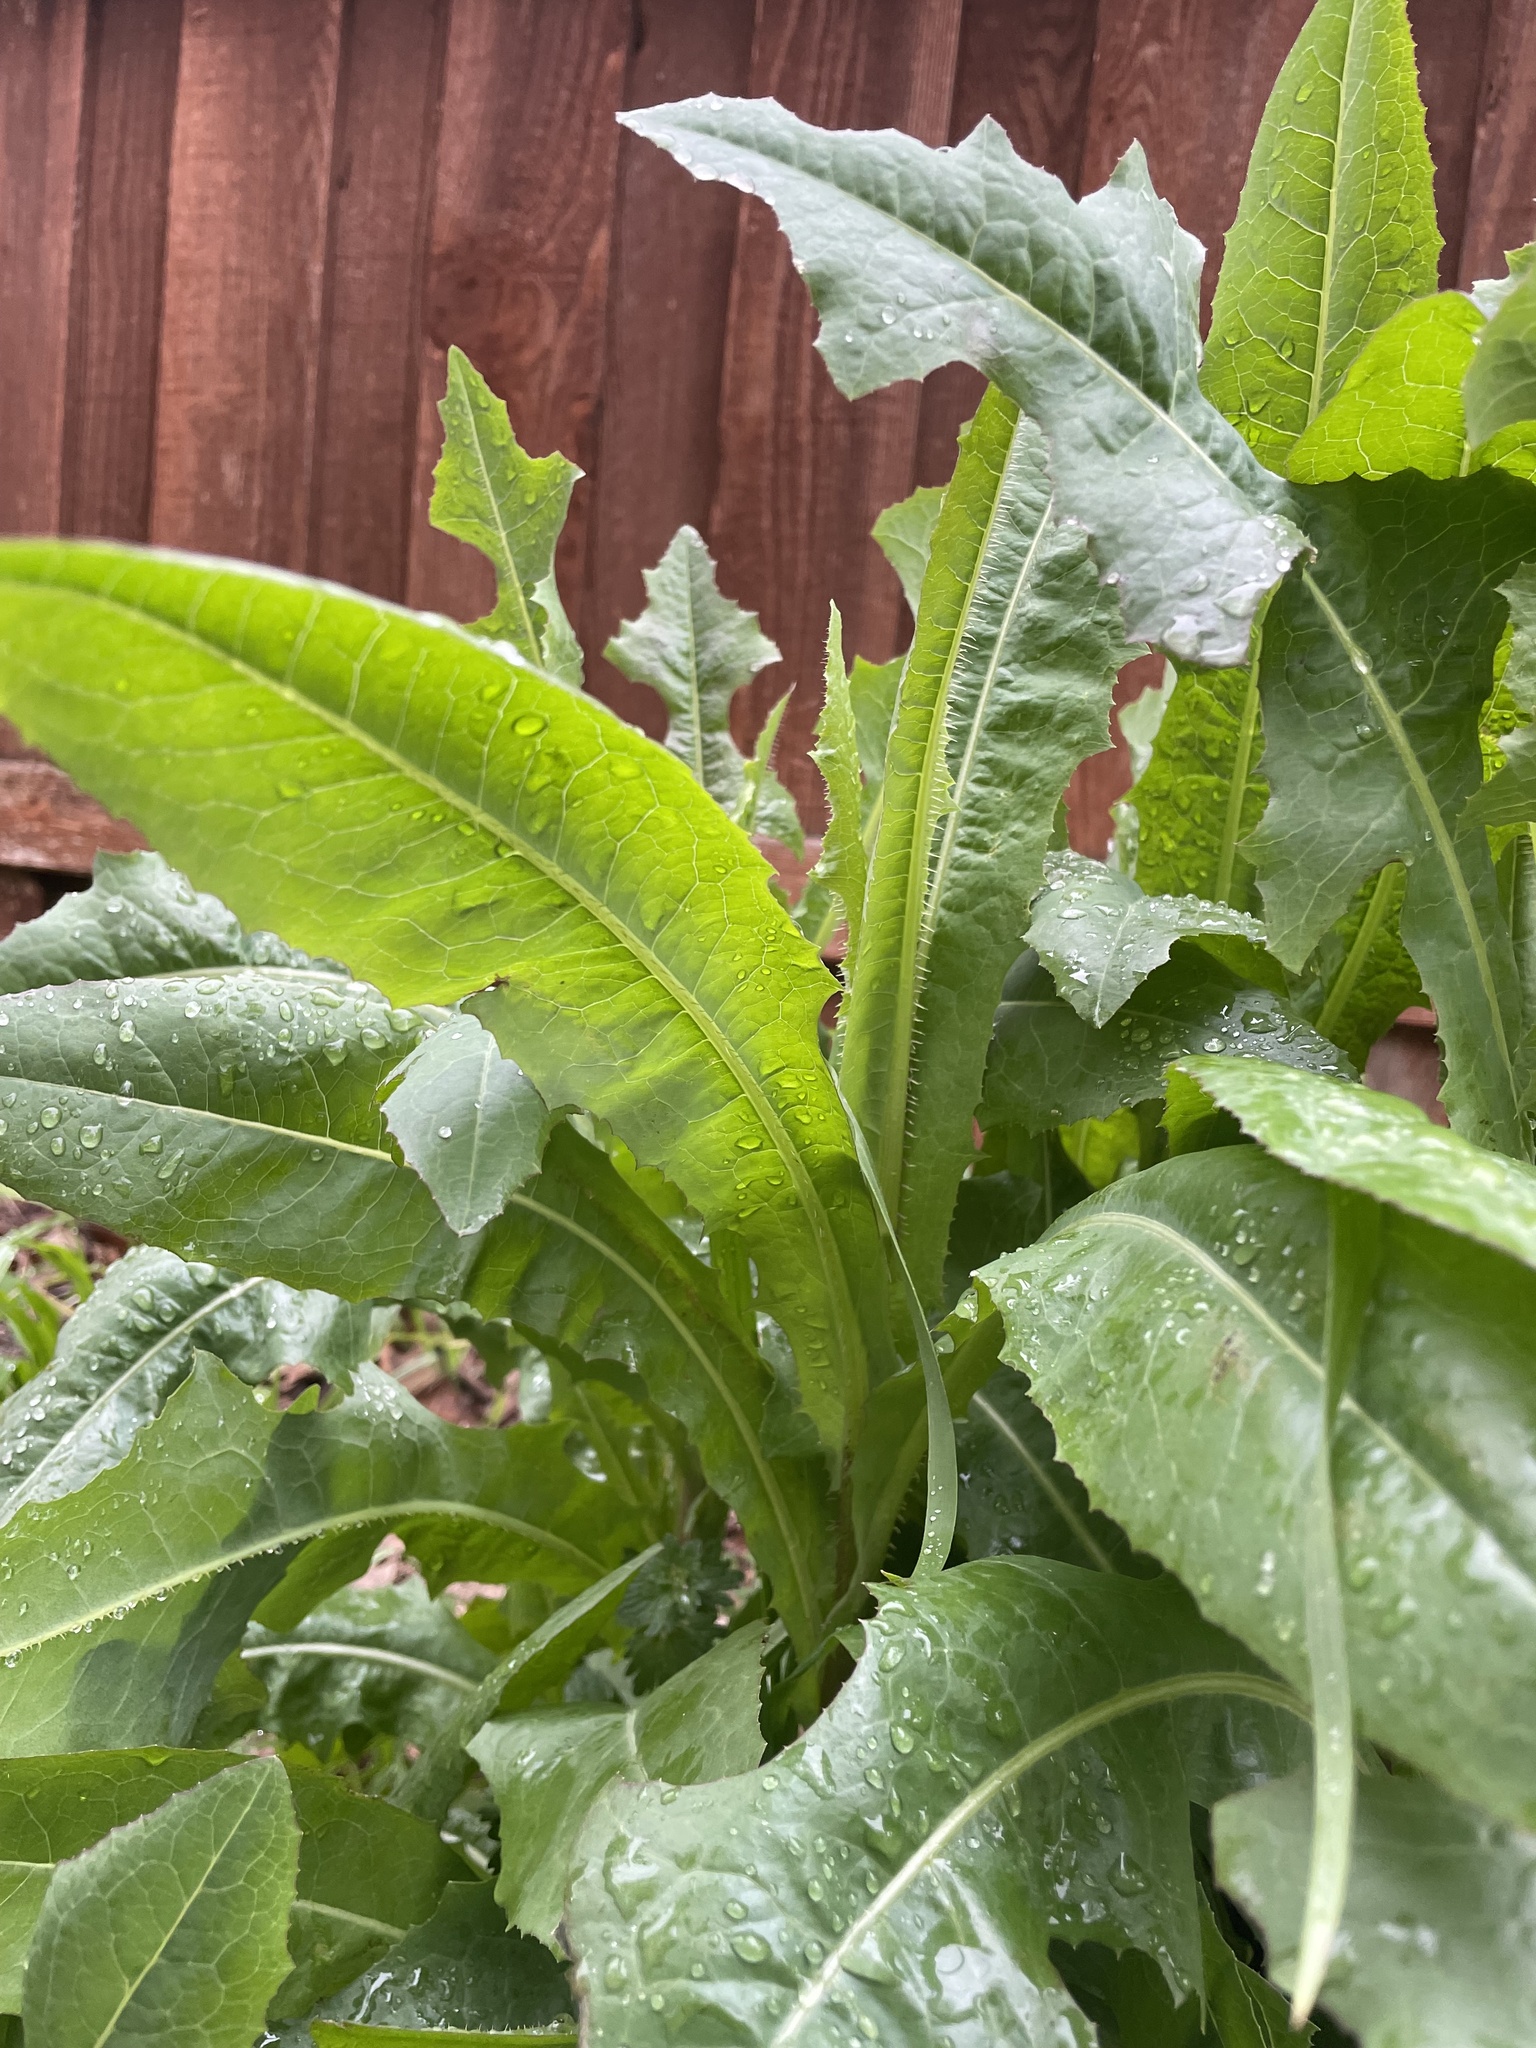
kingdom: Plantae
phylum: Tracheophyta
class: Magnoliopsida
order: Asterales
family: Asteraceae
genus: Lactuca
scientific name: Lactuca serriola
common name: Prickly lettuce
